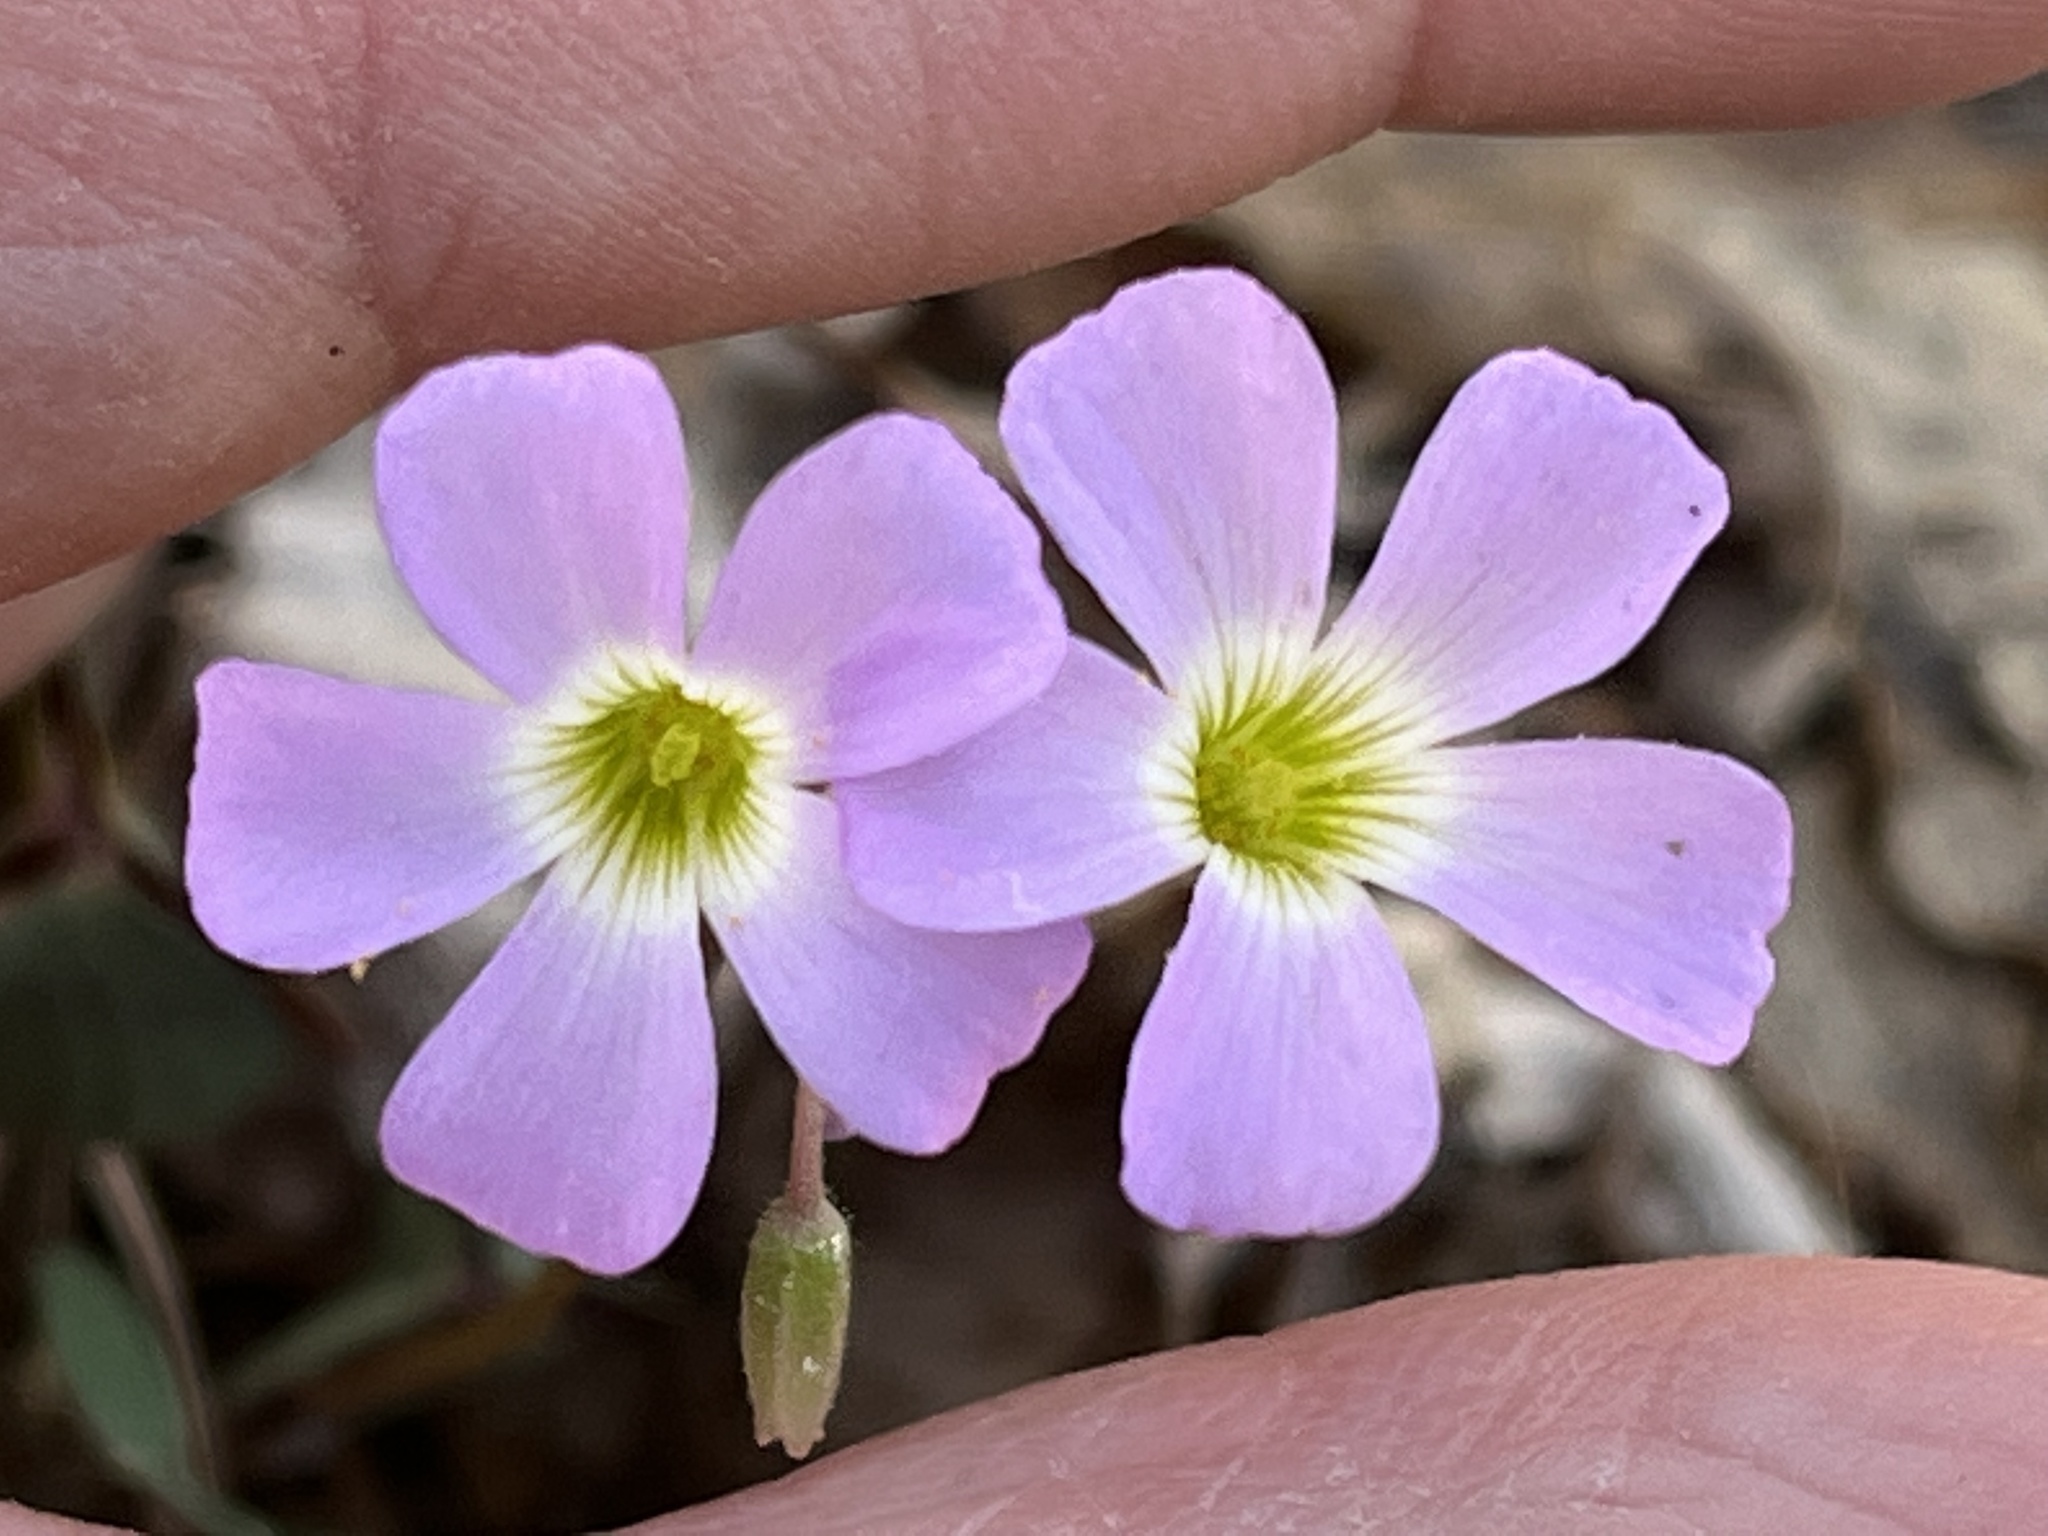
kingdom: Plantae
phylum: Tracheophyta
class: Magnoliopsida
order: Oxalidales
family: Oxalidaceae
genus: Oxalis
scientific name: Oxalis violacea
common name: Violet wood-sorrel
